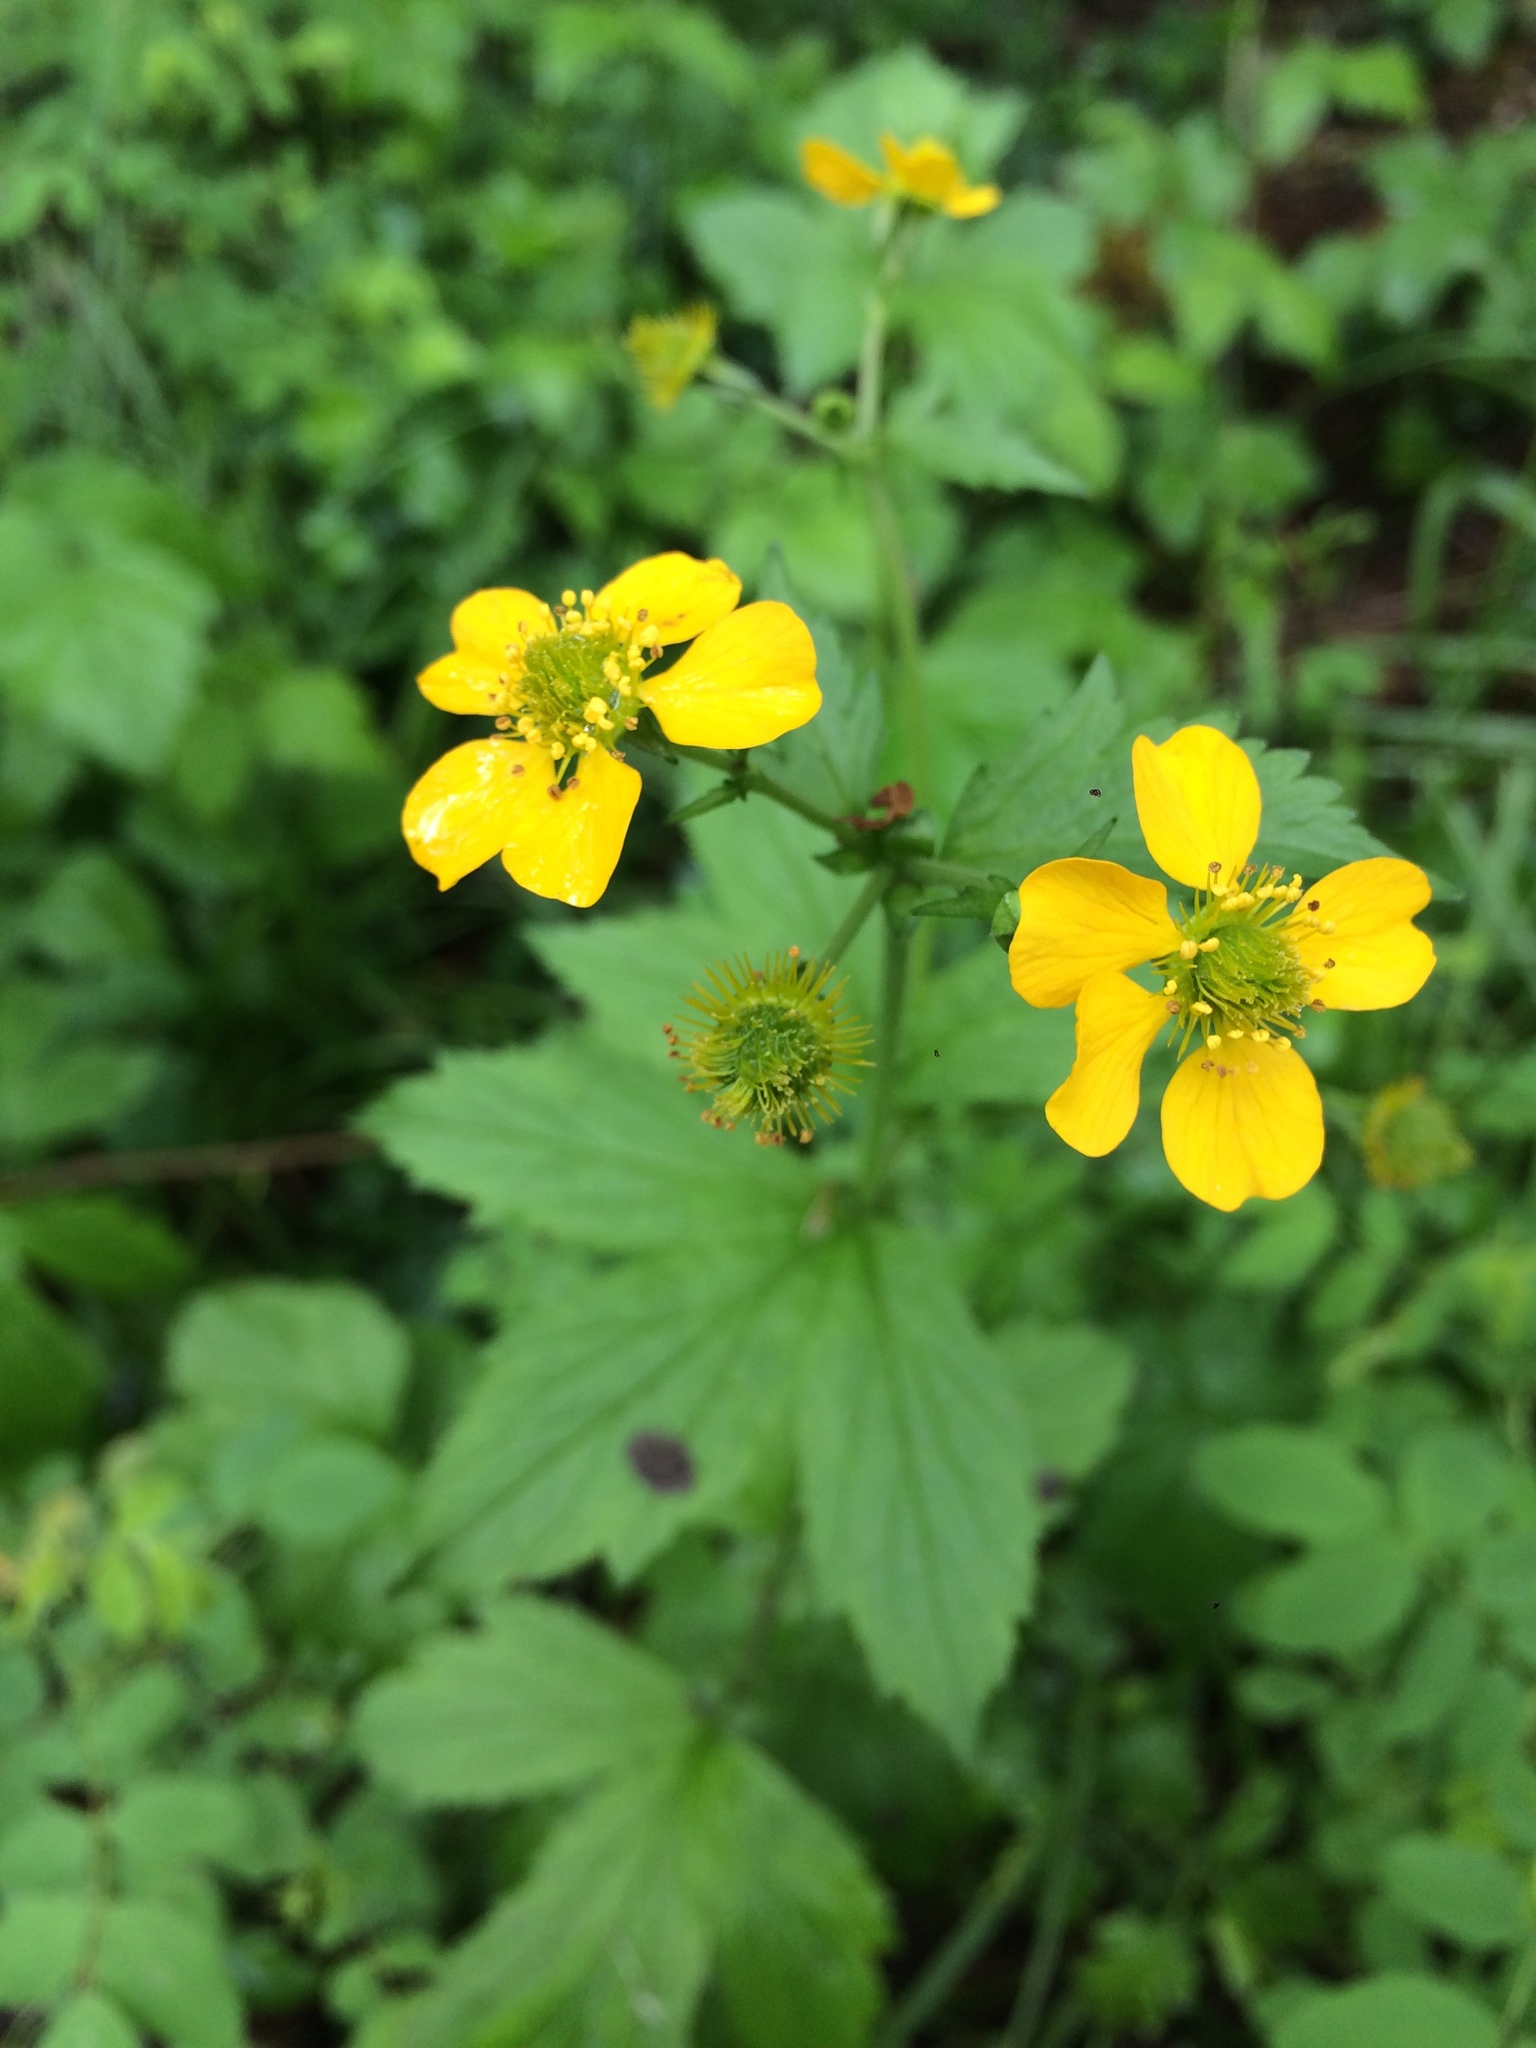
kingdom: Plantae
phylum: Tracheophyta
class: Magnoliopsida
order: Rosales
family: Rosaceae
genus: Geum
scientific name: Geum macrophyllum
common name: Large-leaved avens
